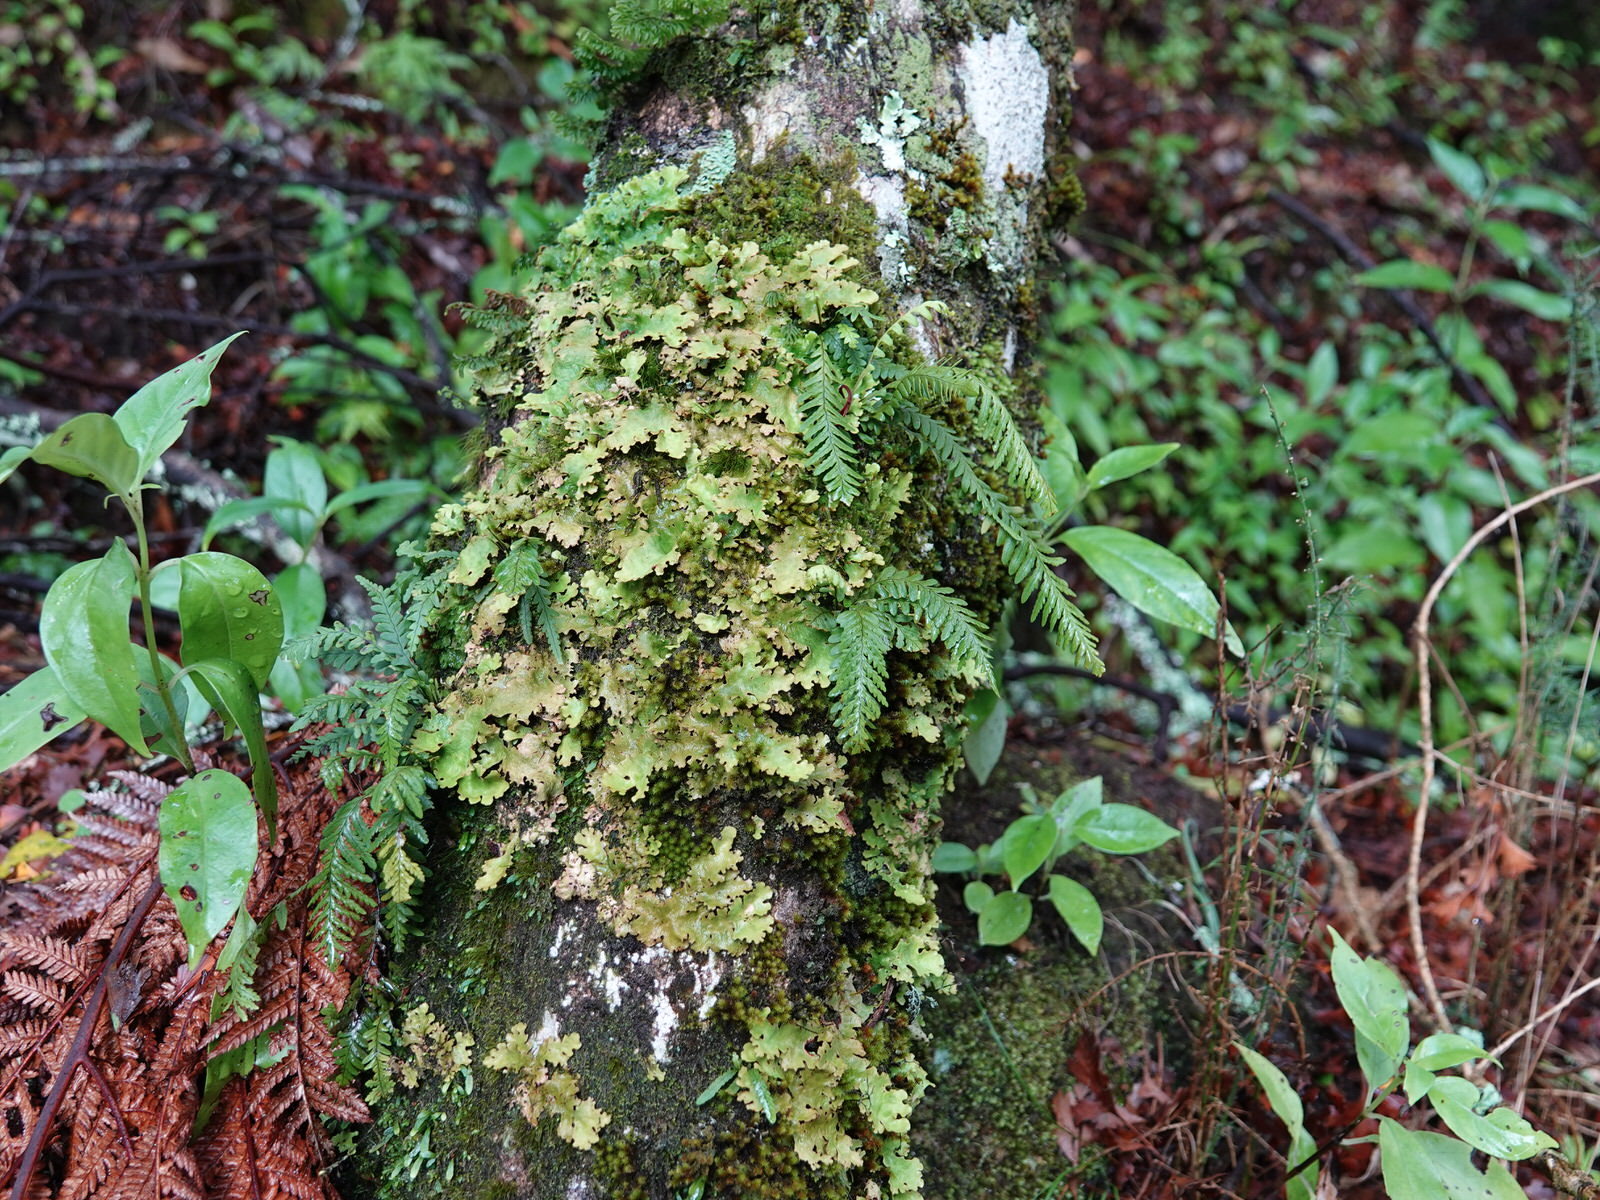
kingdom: Plantae
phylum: Tracheophyta
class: Polypodiopsida
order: Polypodiales
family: Polypodiaceae
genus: Notogrammitis
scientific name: Notogrammitis heterophylla
